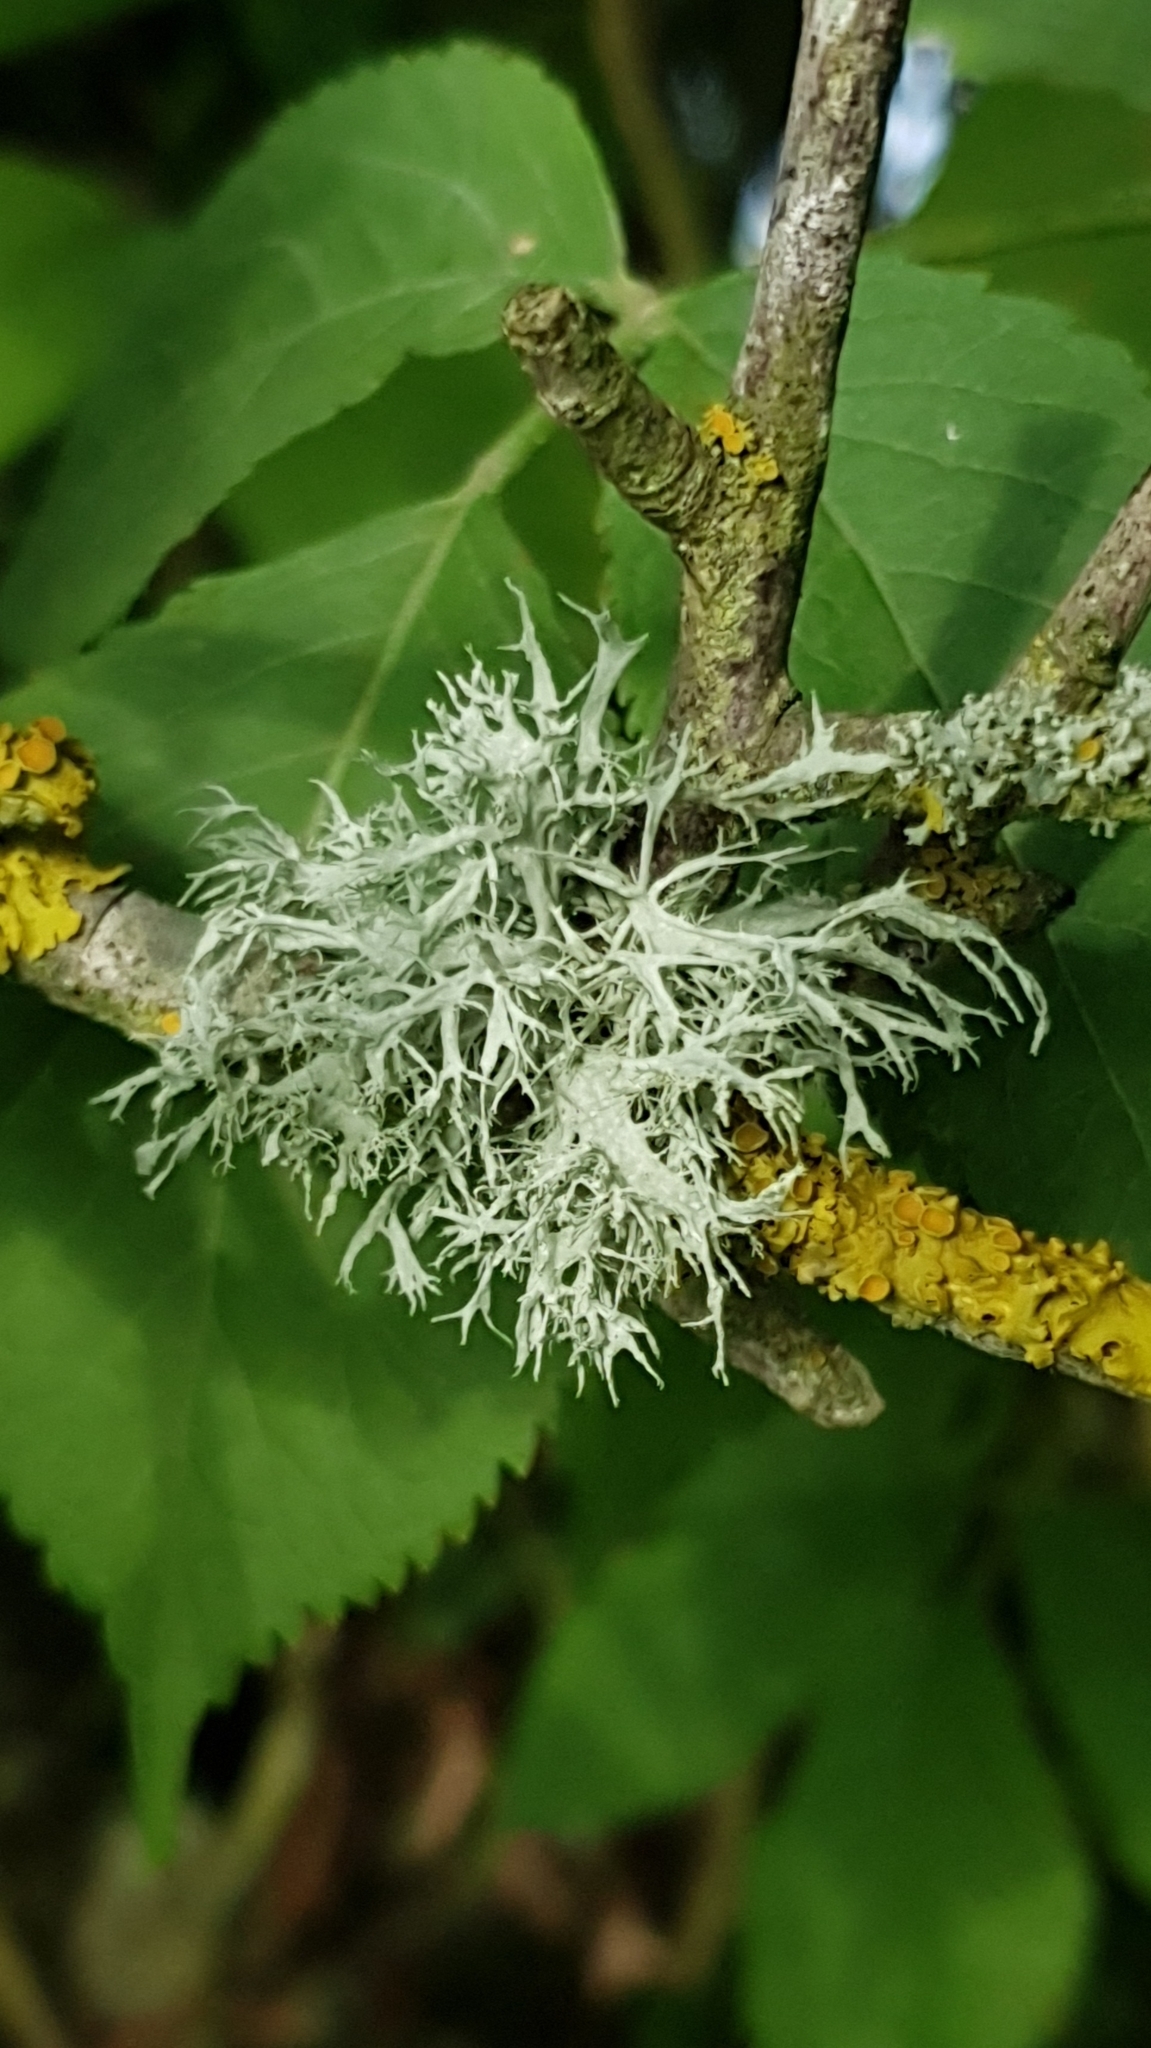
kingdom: Fungi
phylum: Ascomycota
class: Lecanoromycetes
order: Lecanorales
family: Ramalinaceae
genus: Ramalina
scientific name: Ramalina farinacea
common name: Farinose cartilage lichen
